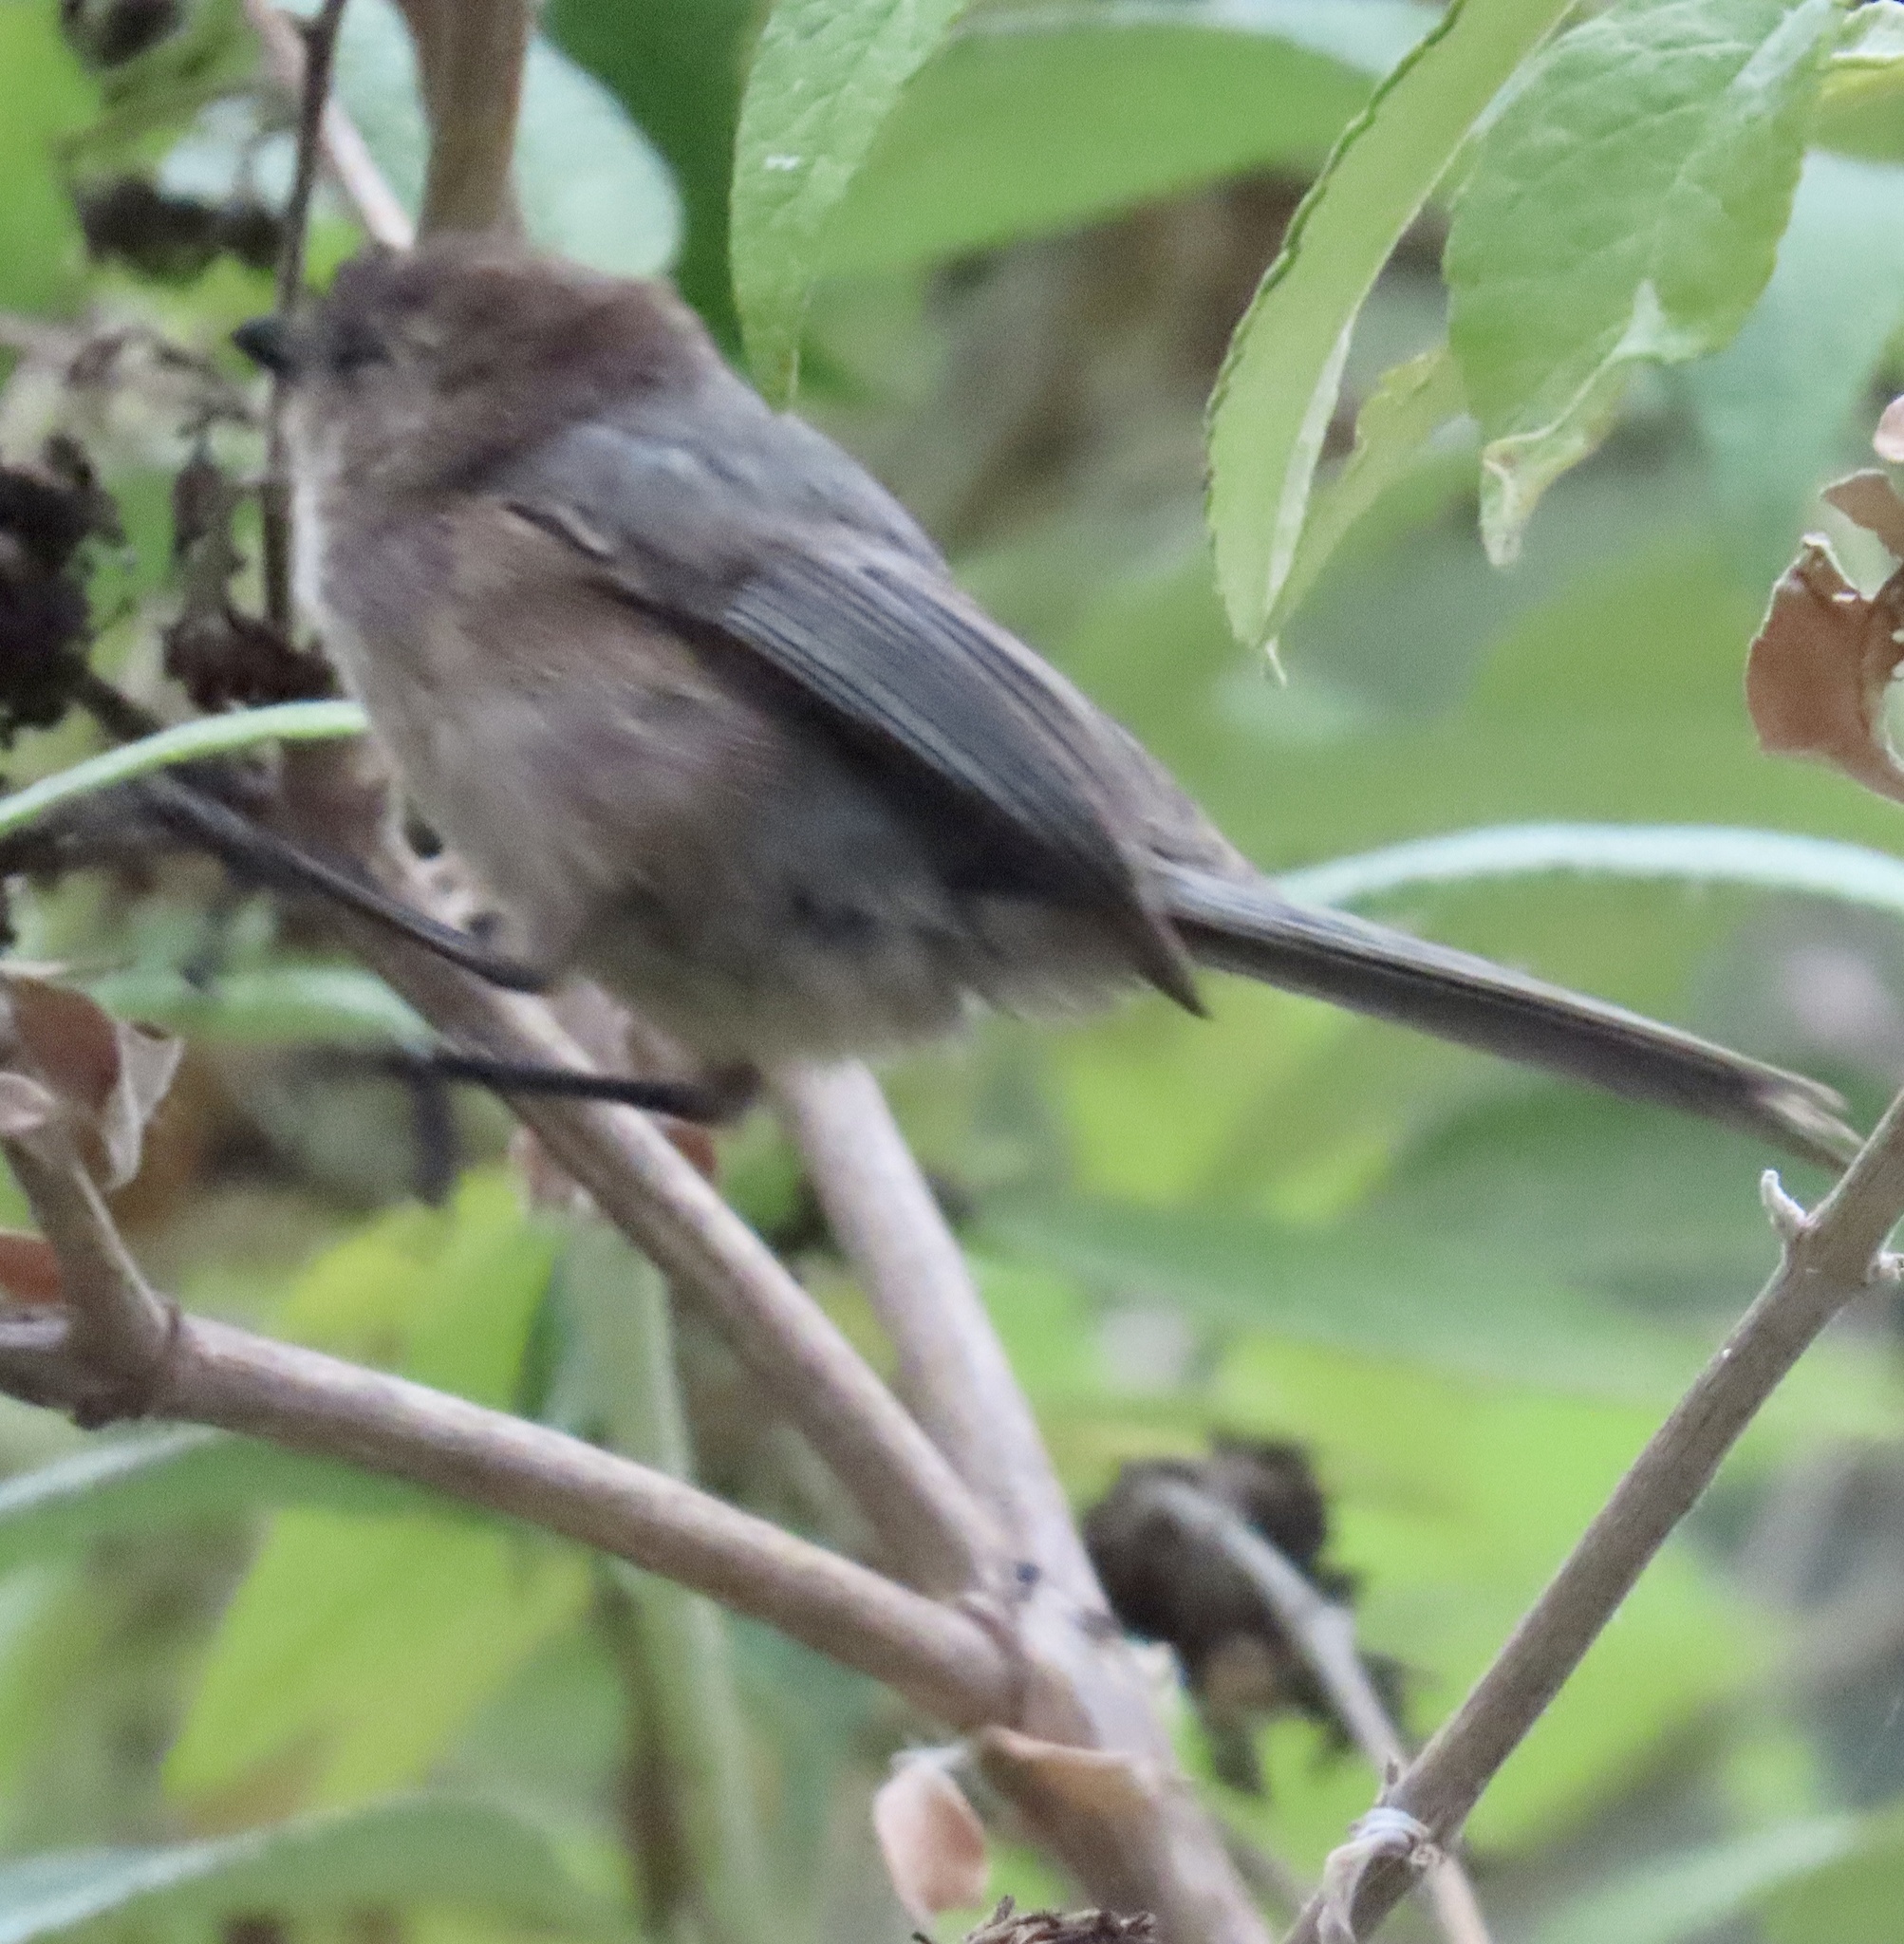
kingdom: Animalia
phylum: Chordata
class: Aves
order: Passeriformes
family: Aegithalidae
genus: Psaltriparus
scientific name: Psaltriparus minimus
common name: American bushtit
